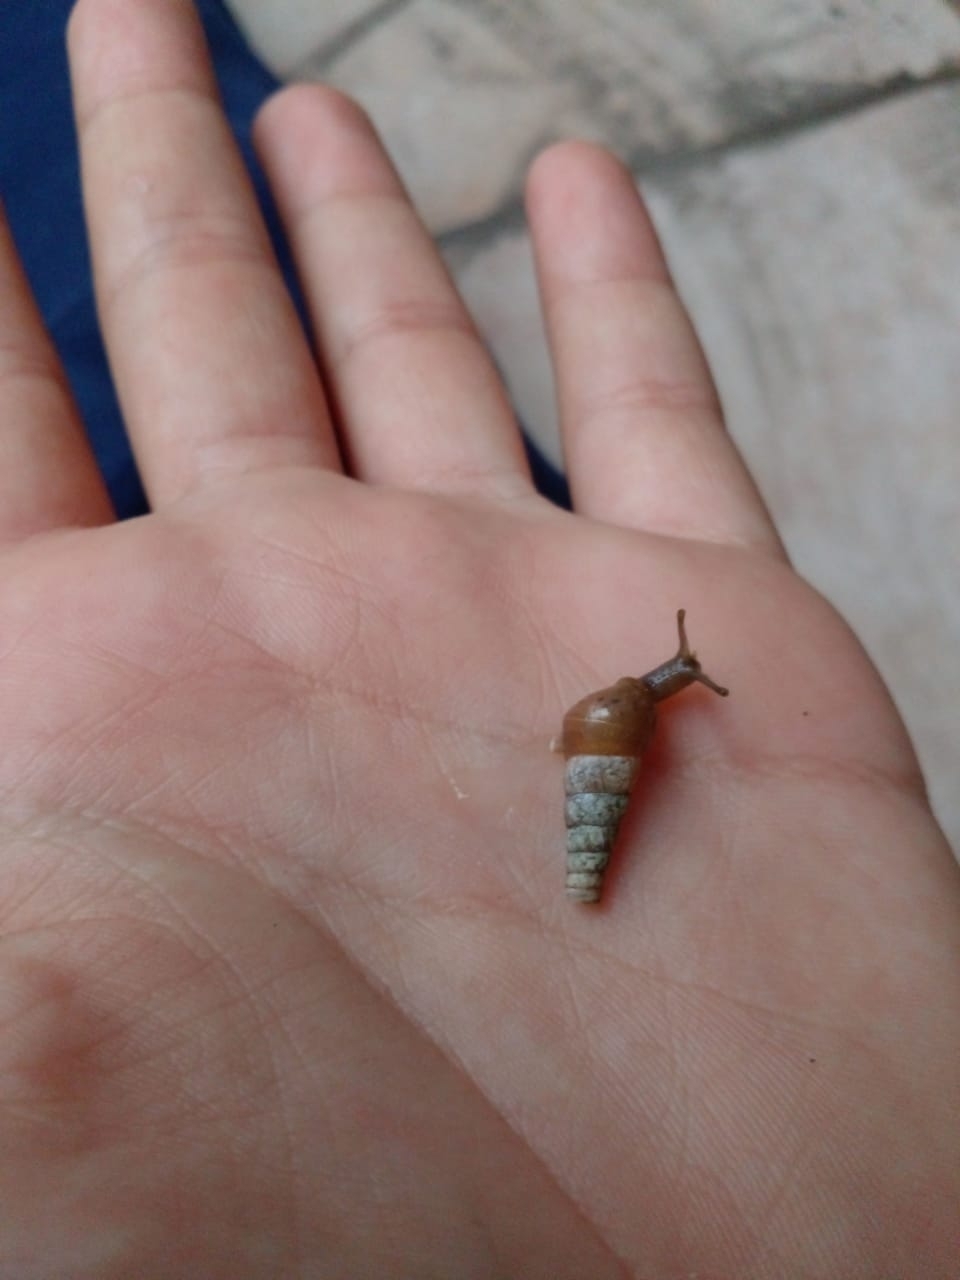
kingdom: Animalia
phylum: Mollusca
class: Gastropoda
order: Stylommatophora
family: Achatinidae
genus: Rumina
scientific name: Rumina decollata
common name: Decollate snail
